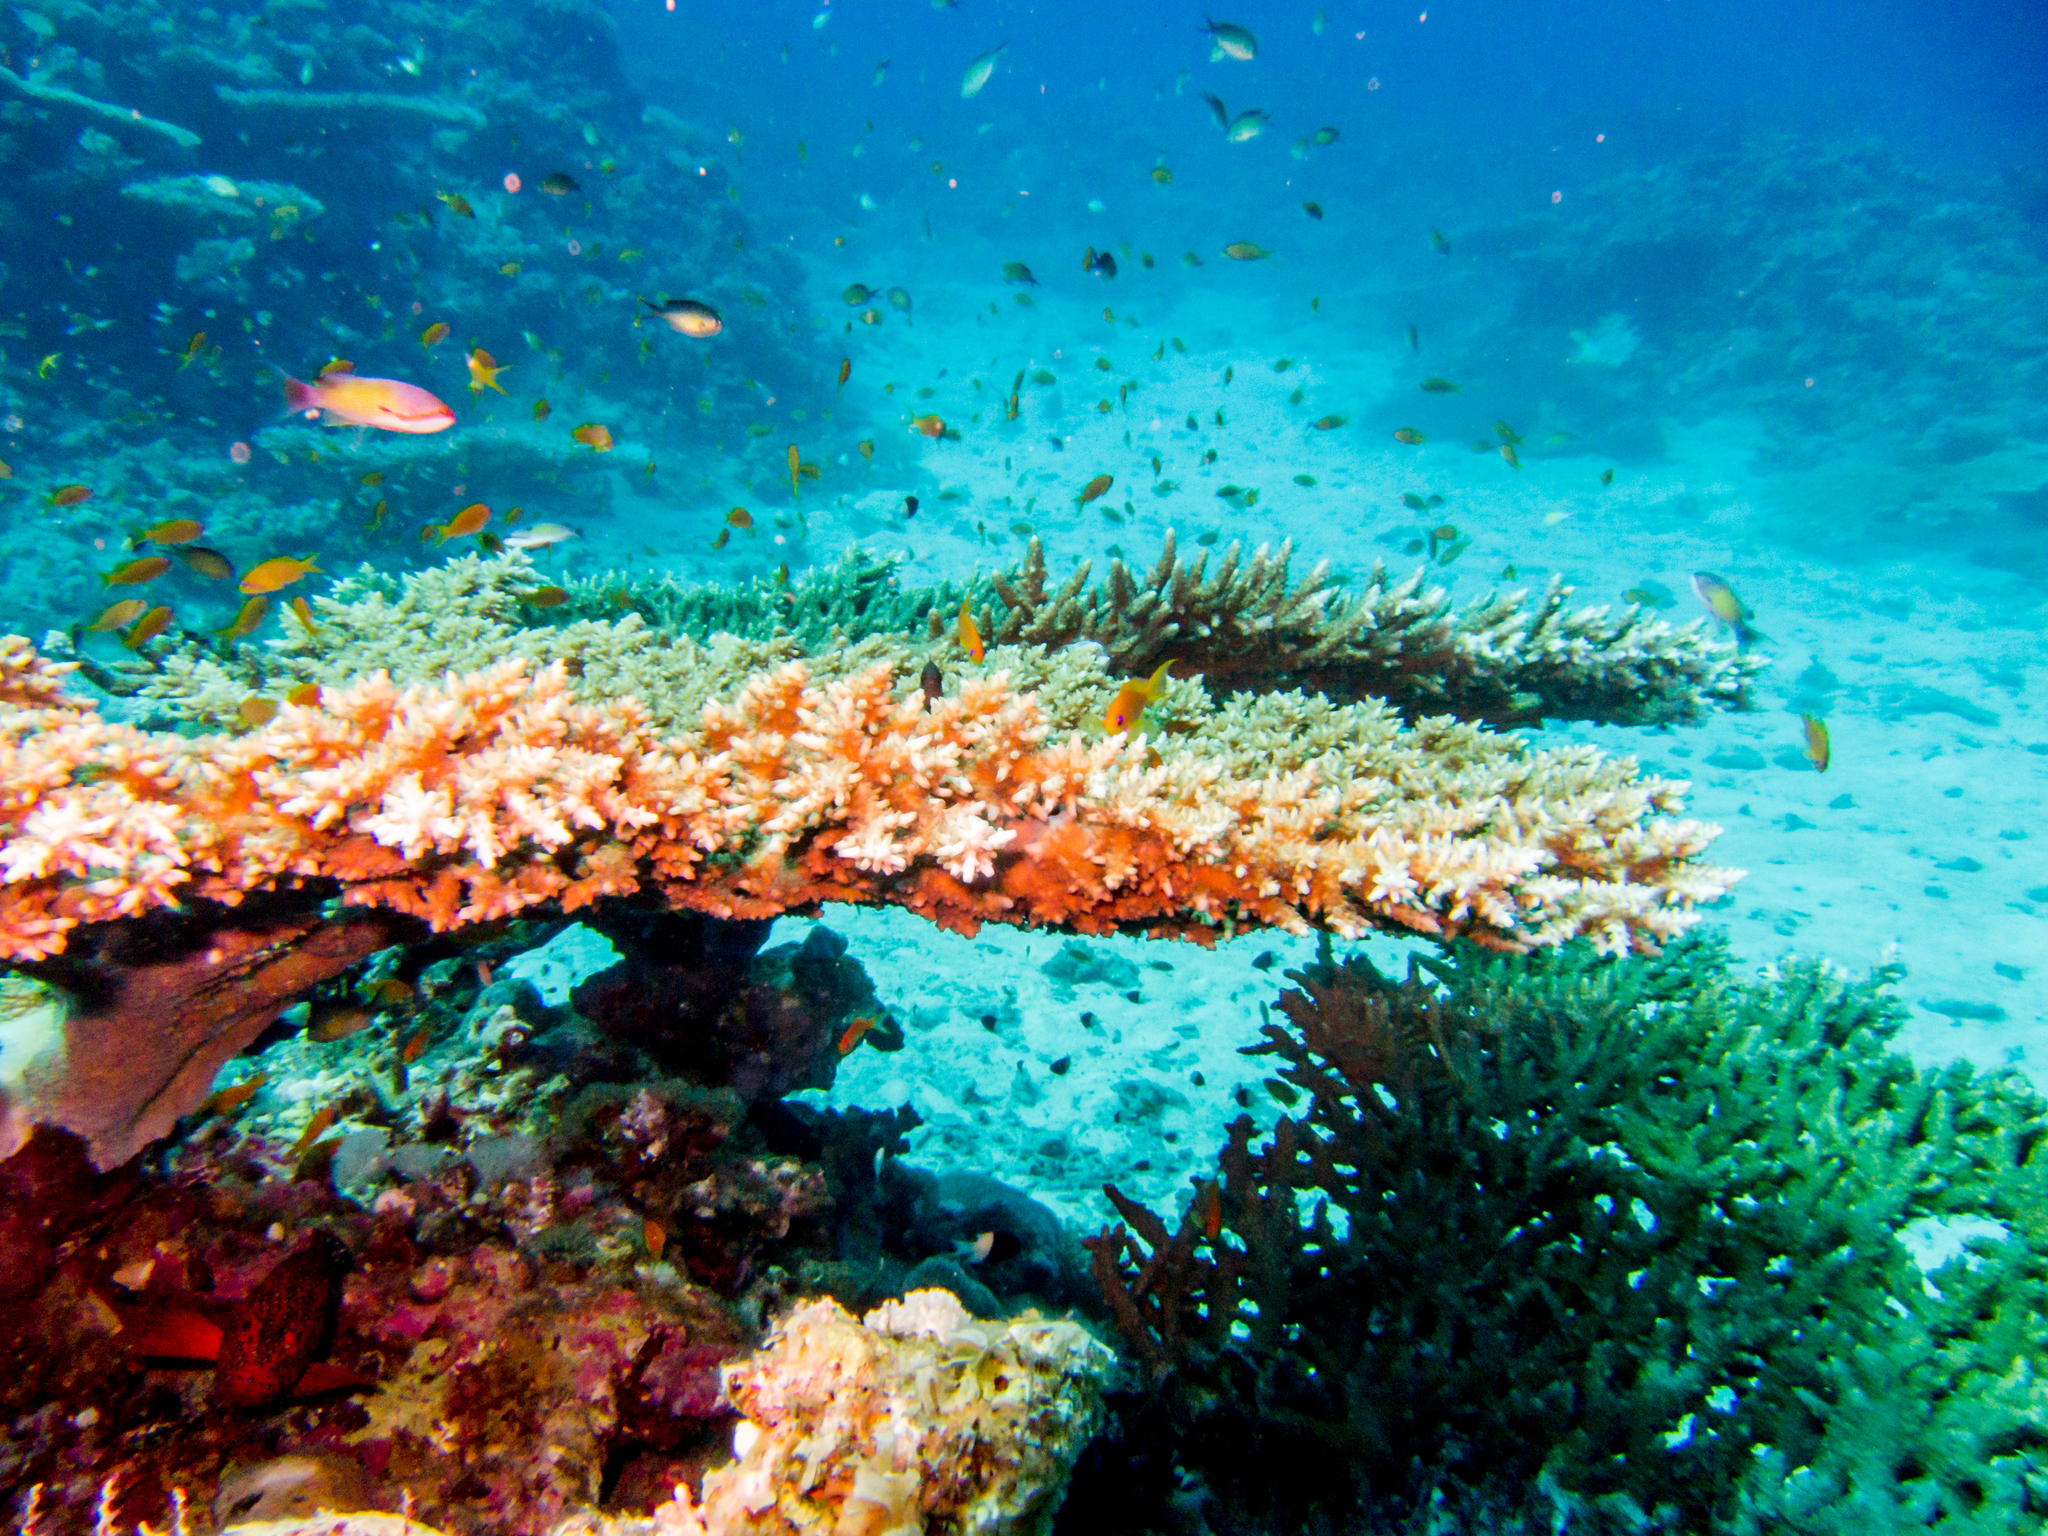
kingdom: Animalia
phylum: Chordata
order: Perciformes
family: Serranidae
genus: Pseudanthias
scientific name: Pseudanthias squamipinnis
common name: Scalefin anthias
